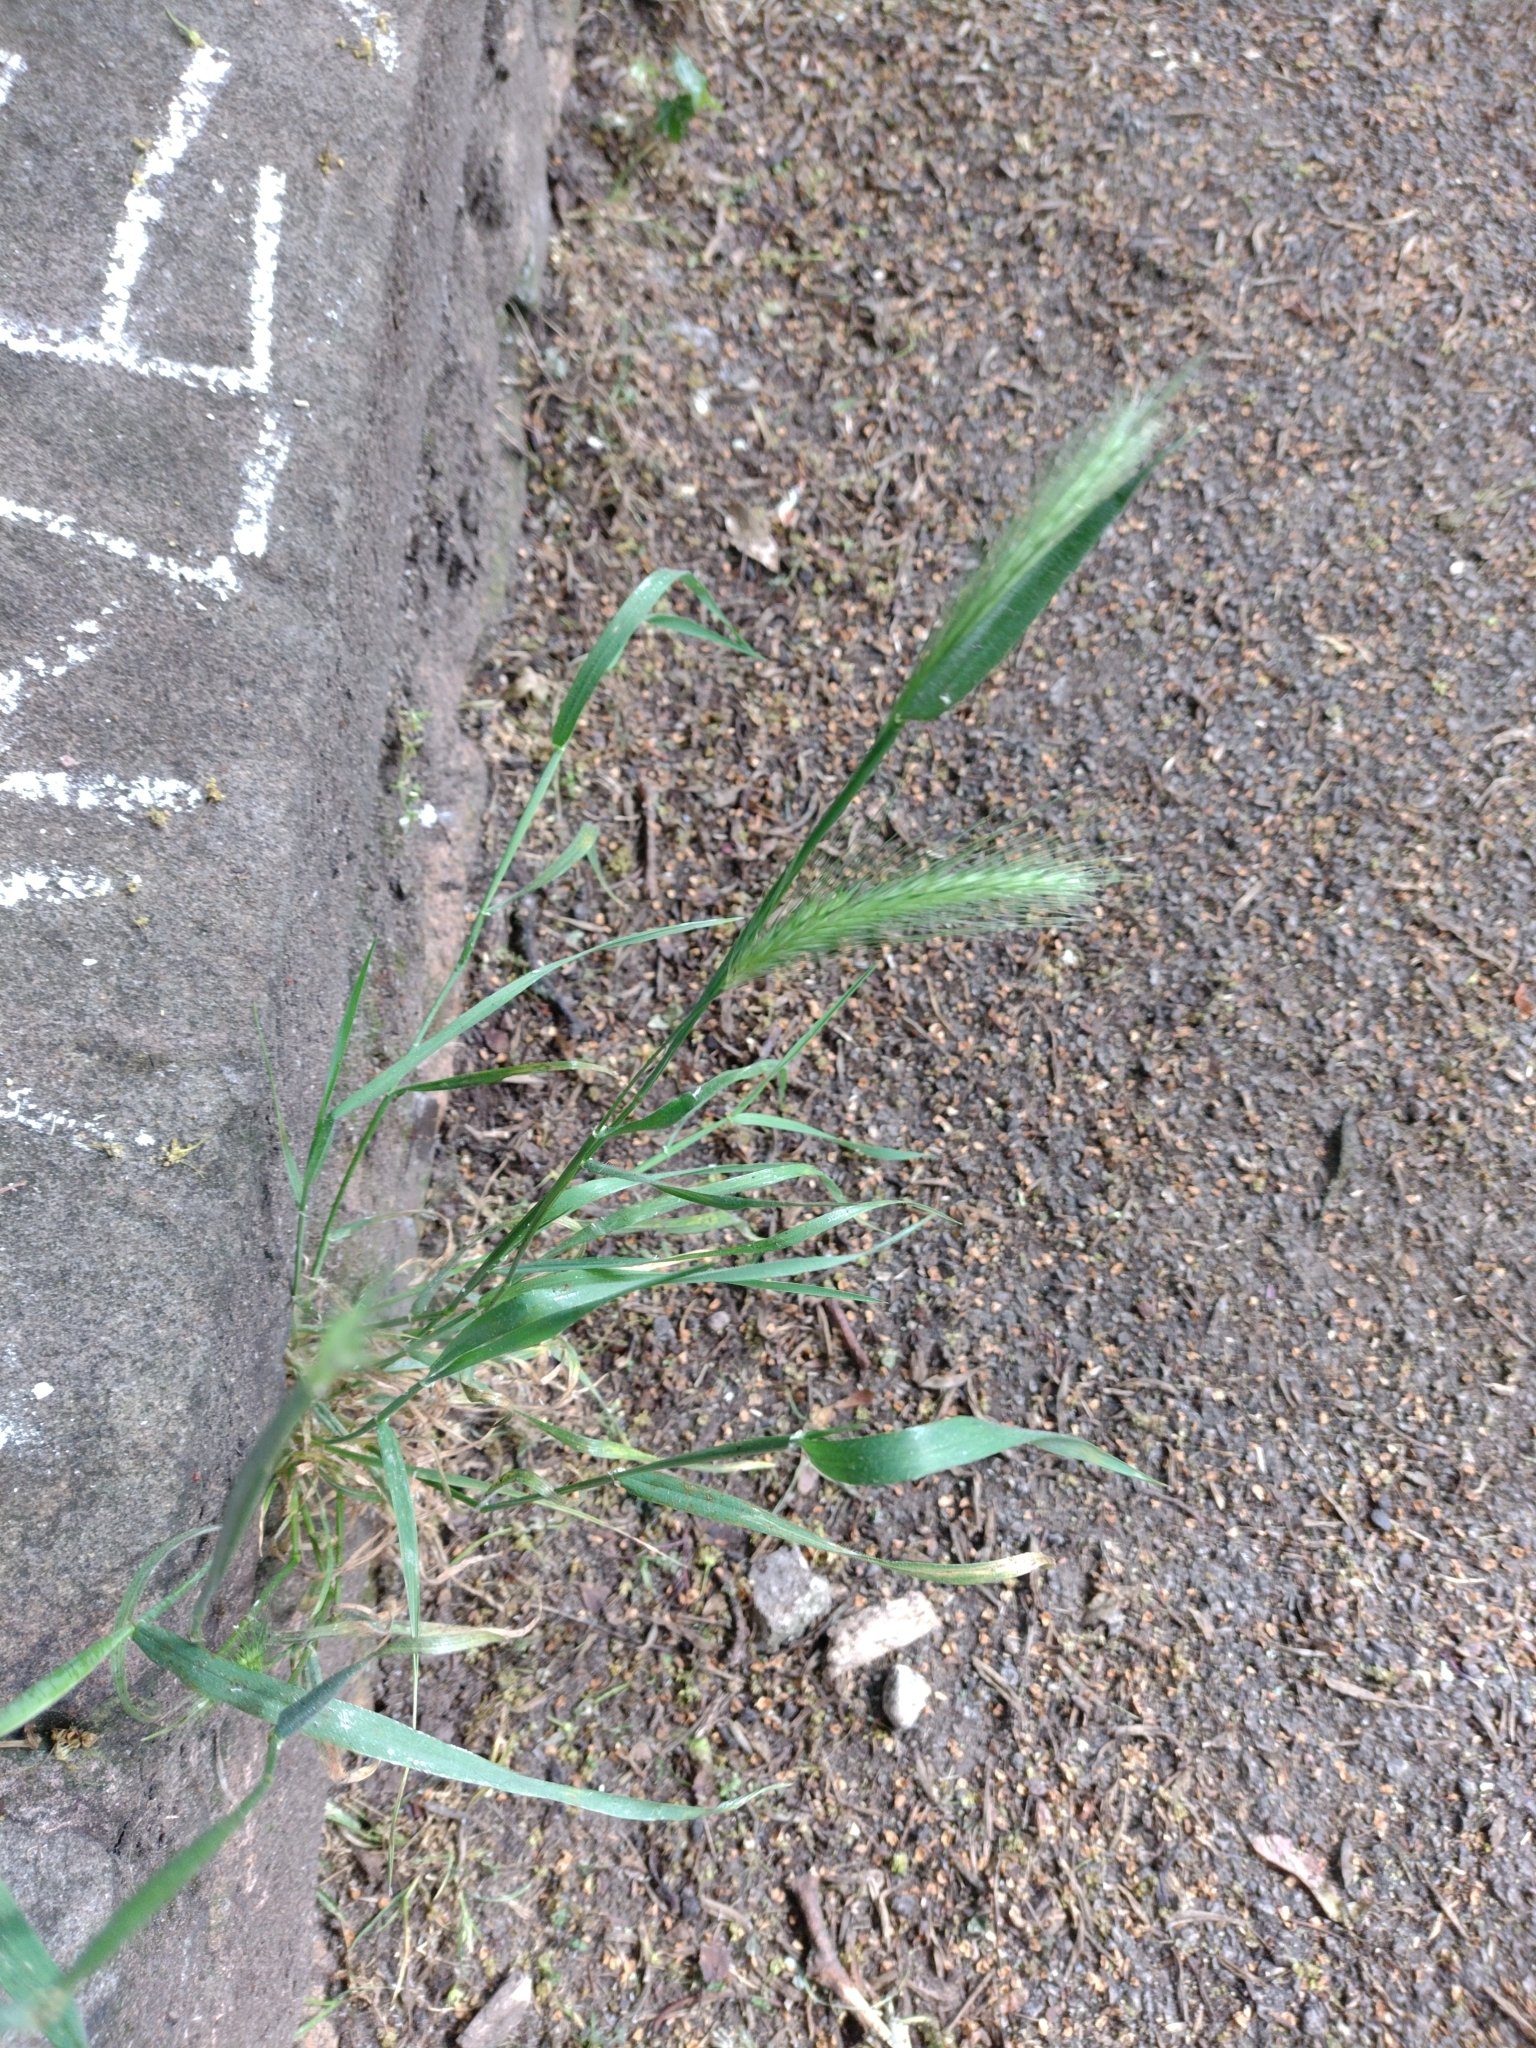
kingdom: Plantae
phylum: Tracheophyta
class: Liliopsida
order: Poales
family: Poaceae
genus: Hordeum
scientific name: Hordeum murinum
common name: Wall barley
